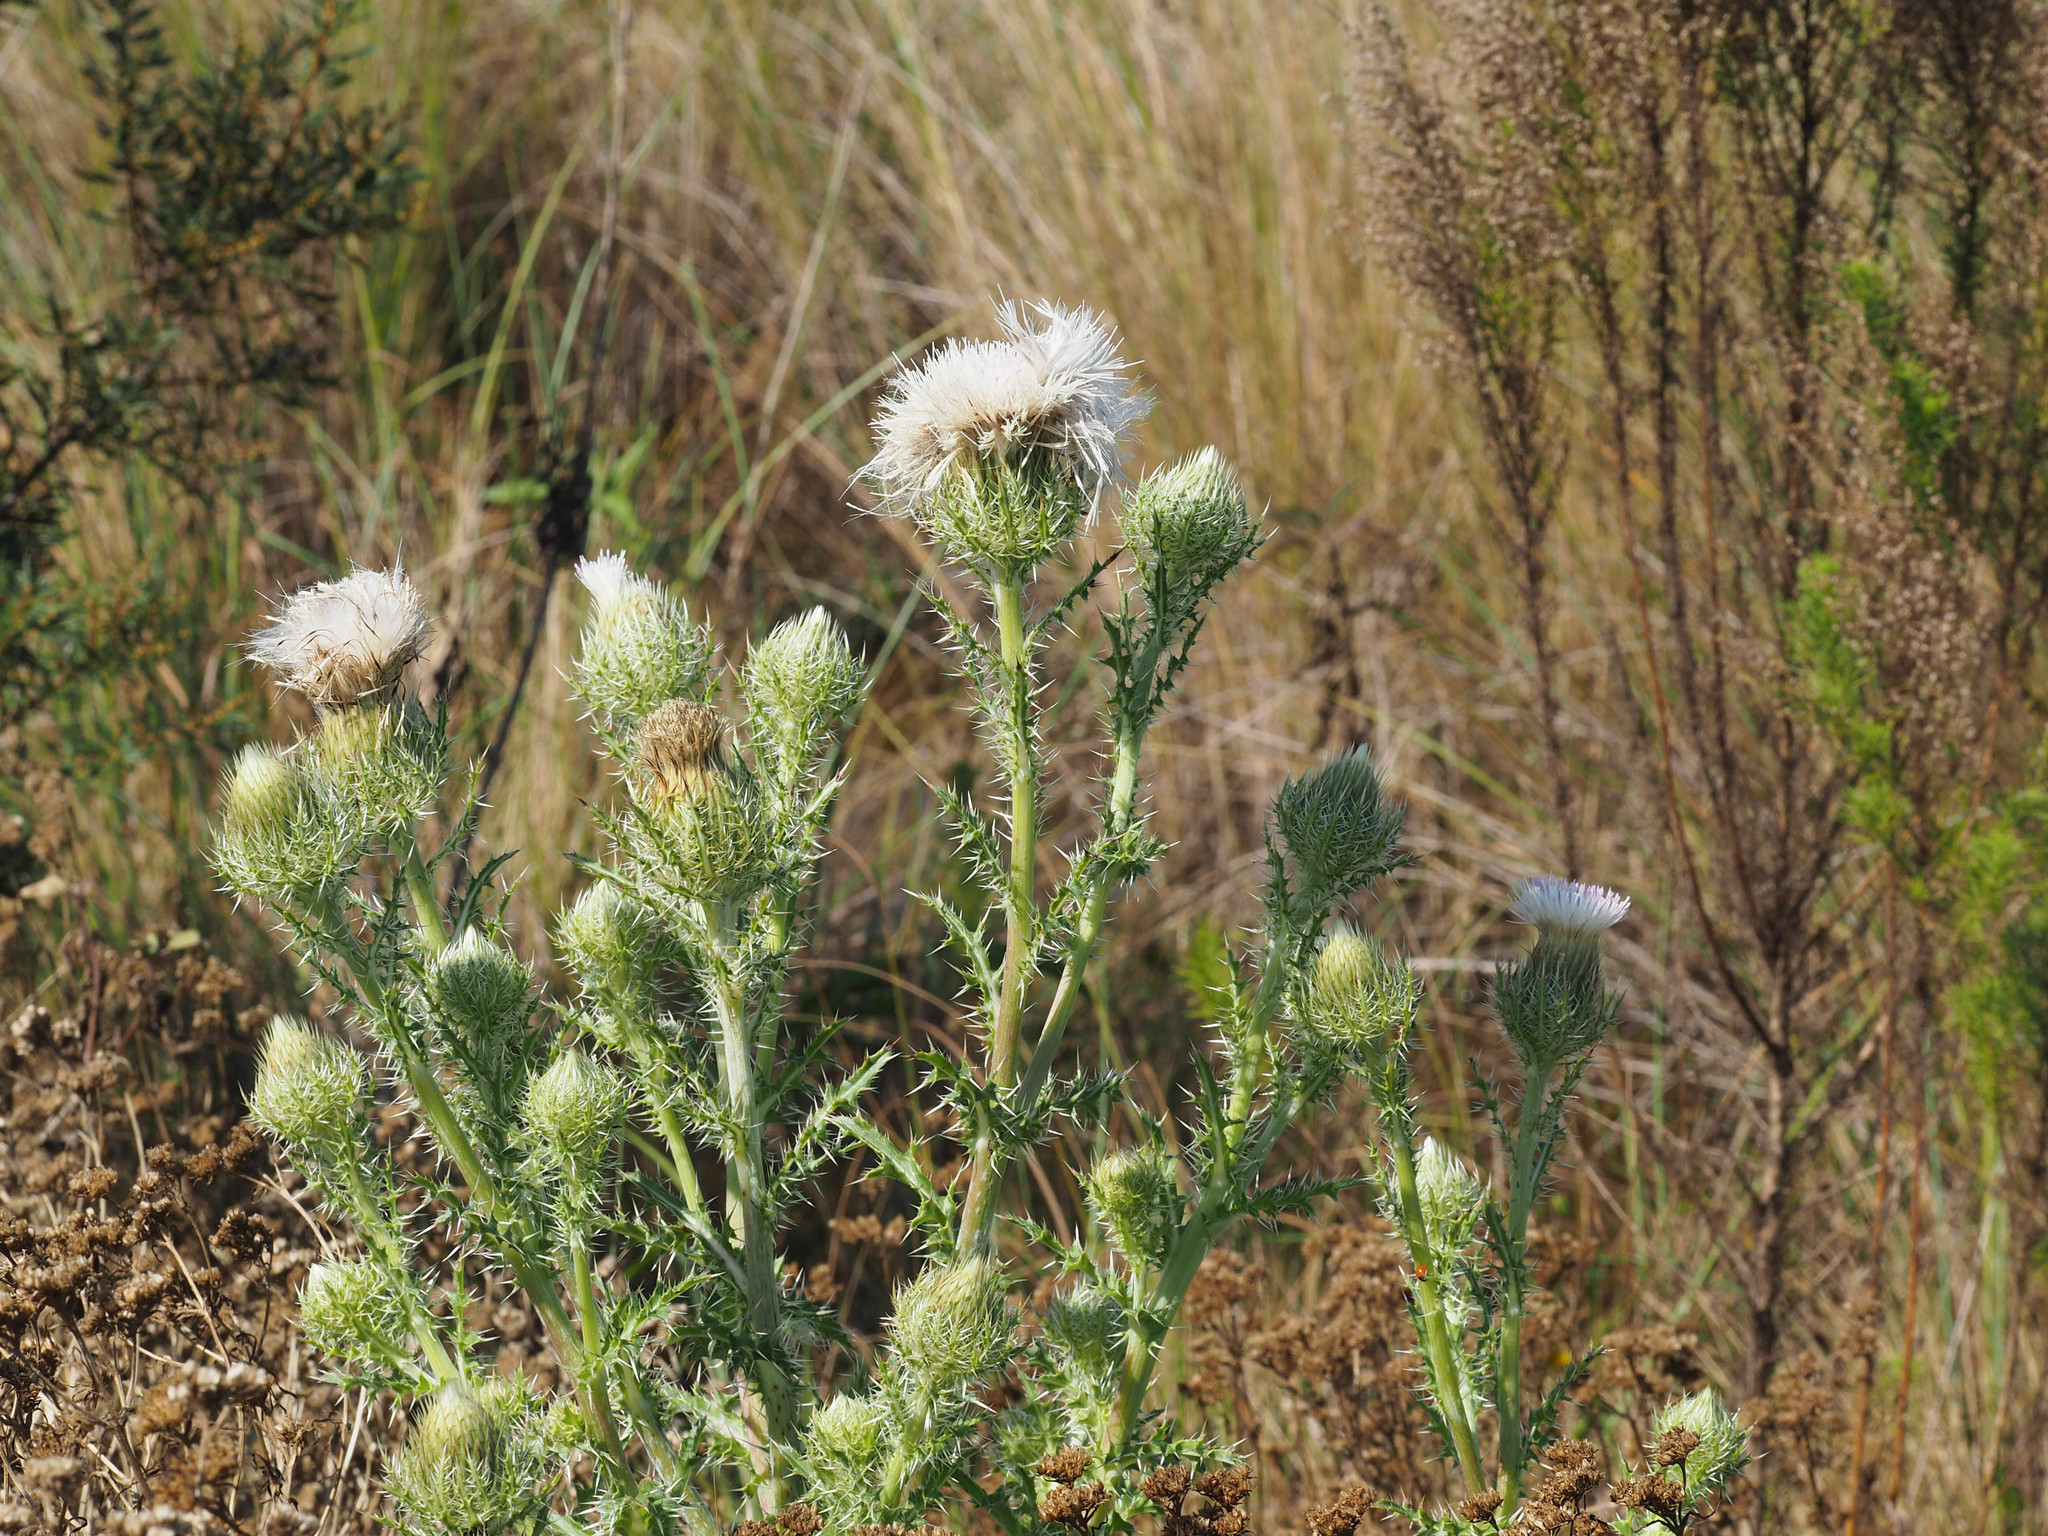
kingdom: Plantae
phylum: Tracheophyta
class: Magnoliopsida
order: Asterales
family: Asteraceae
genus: Cirsium
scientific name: Cirsium horridulum
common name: Bristly thistle
